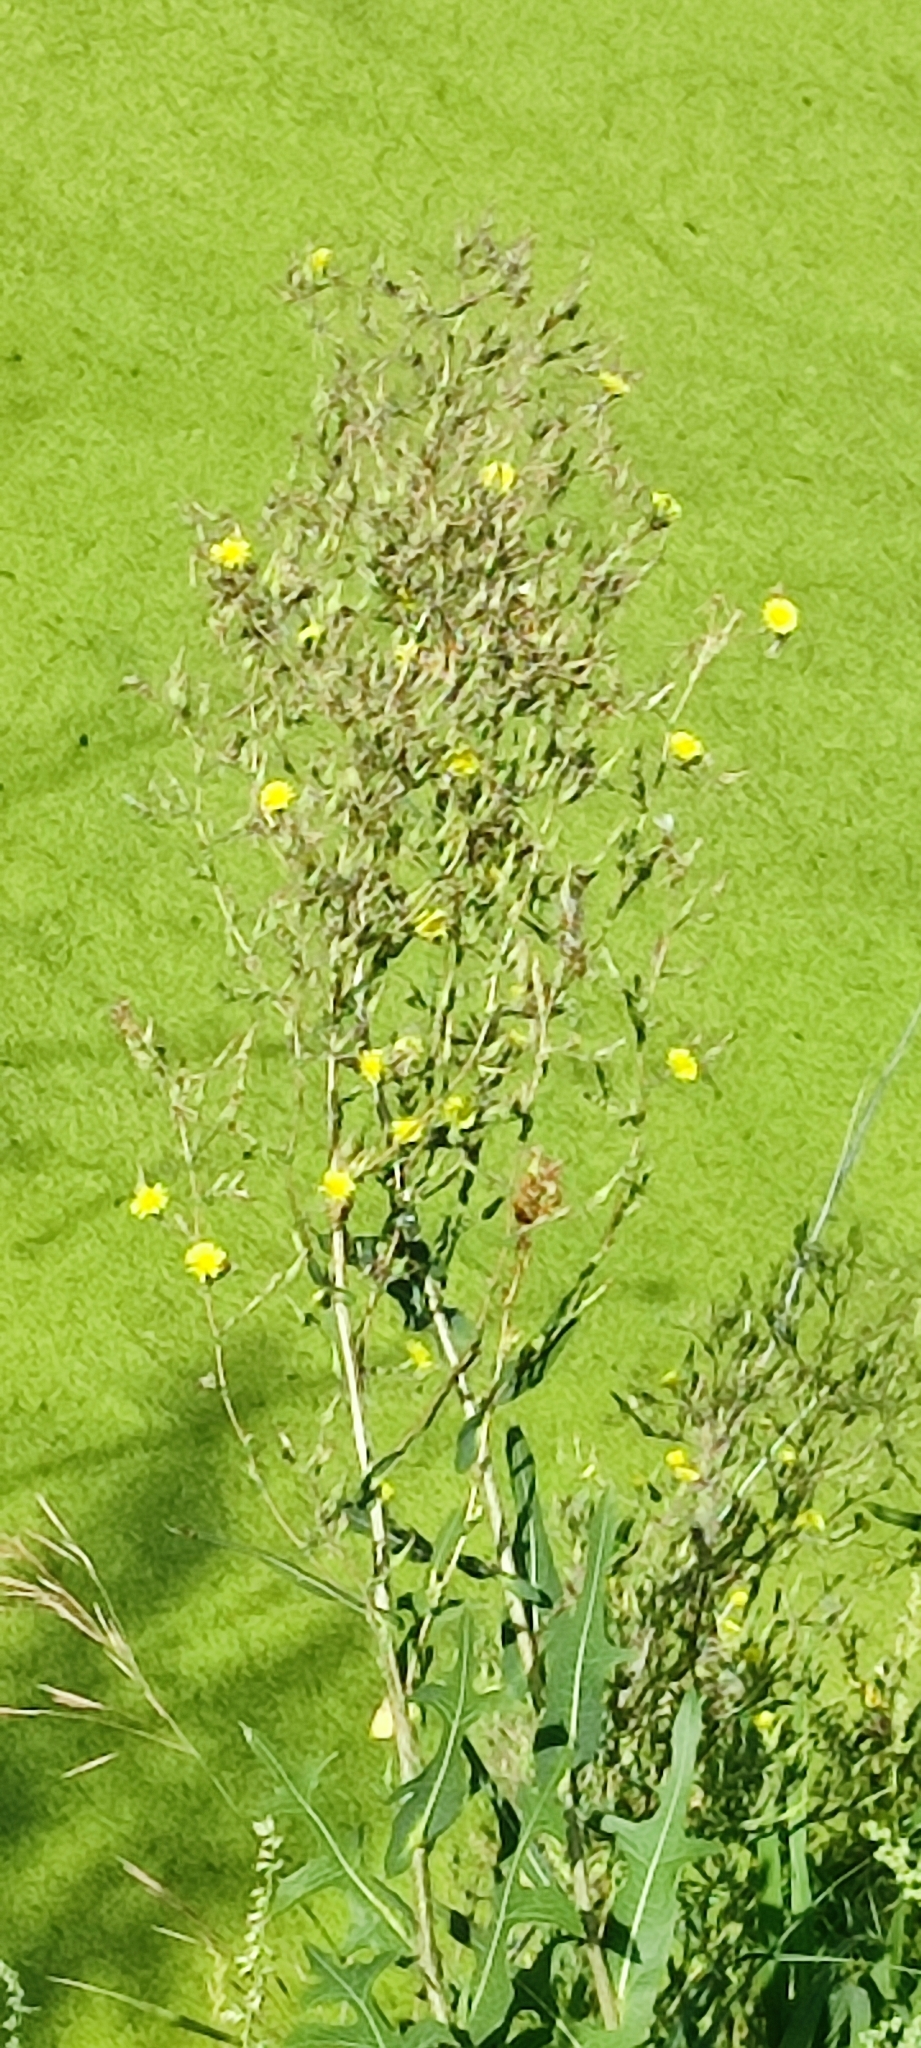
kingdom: Plantae
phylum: Tracheophyta
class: Magnoliopsida
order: Asterales
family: Asteraceae
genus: Lactuca
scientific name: Lactuca serriola
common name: Prickly lettuce
